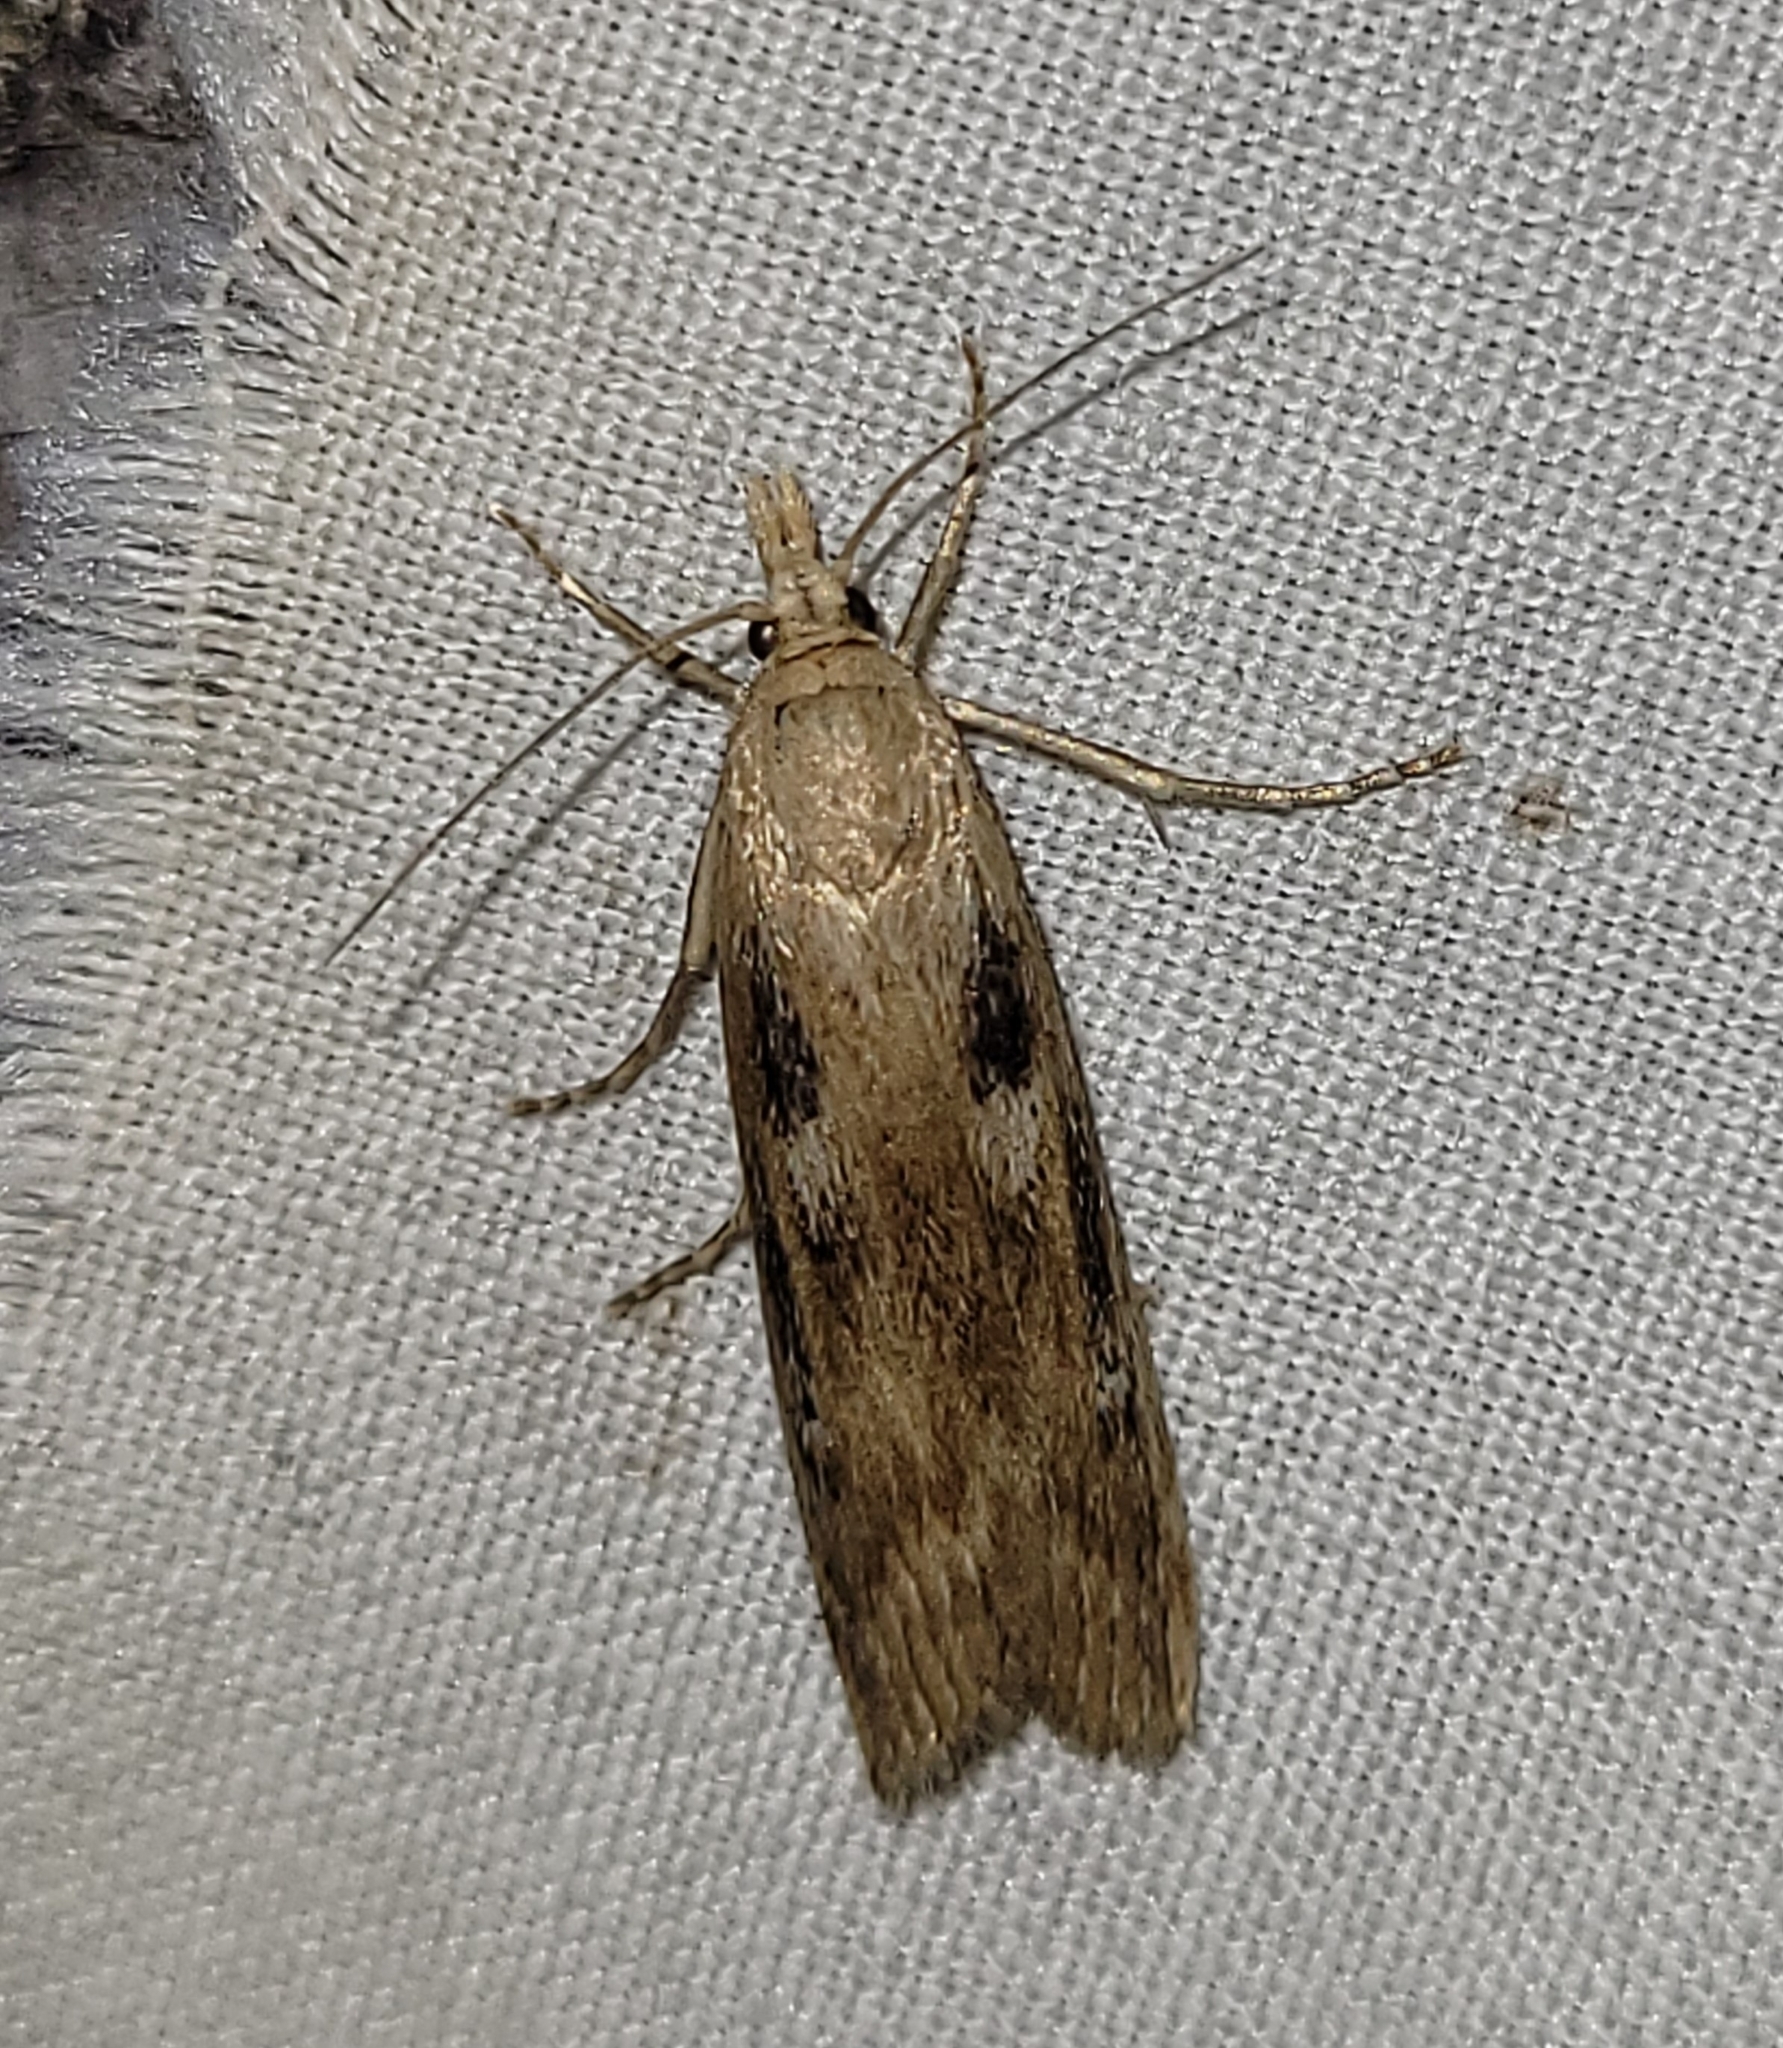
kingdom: Animalia
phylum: Arthropoda
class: Insecta
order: Lepidoptera
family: Crambidae
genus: Occidentalia
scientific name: Occidentalia comptulatalis
